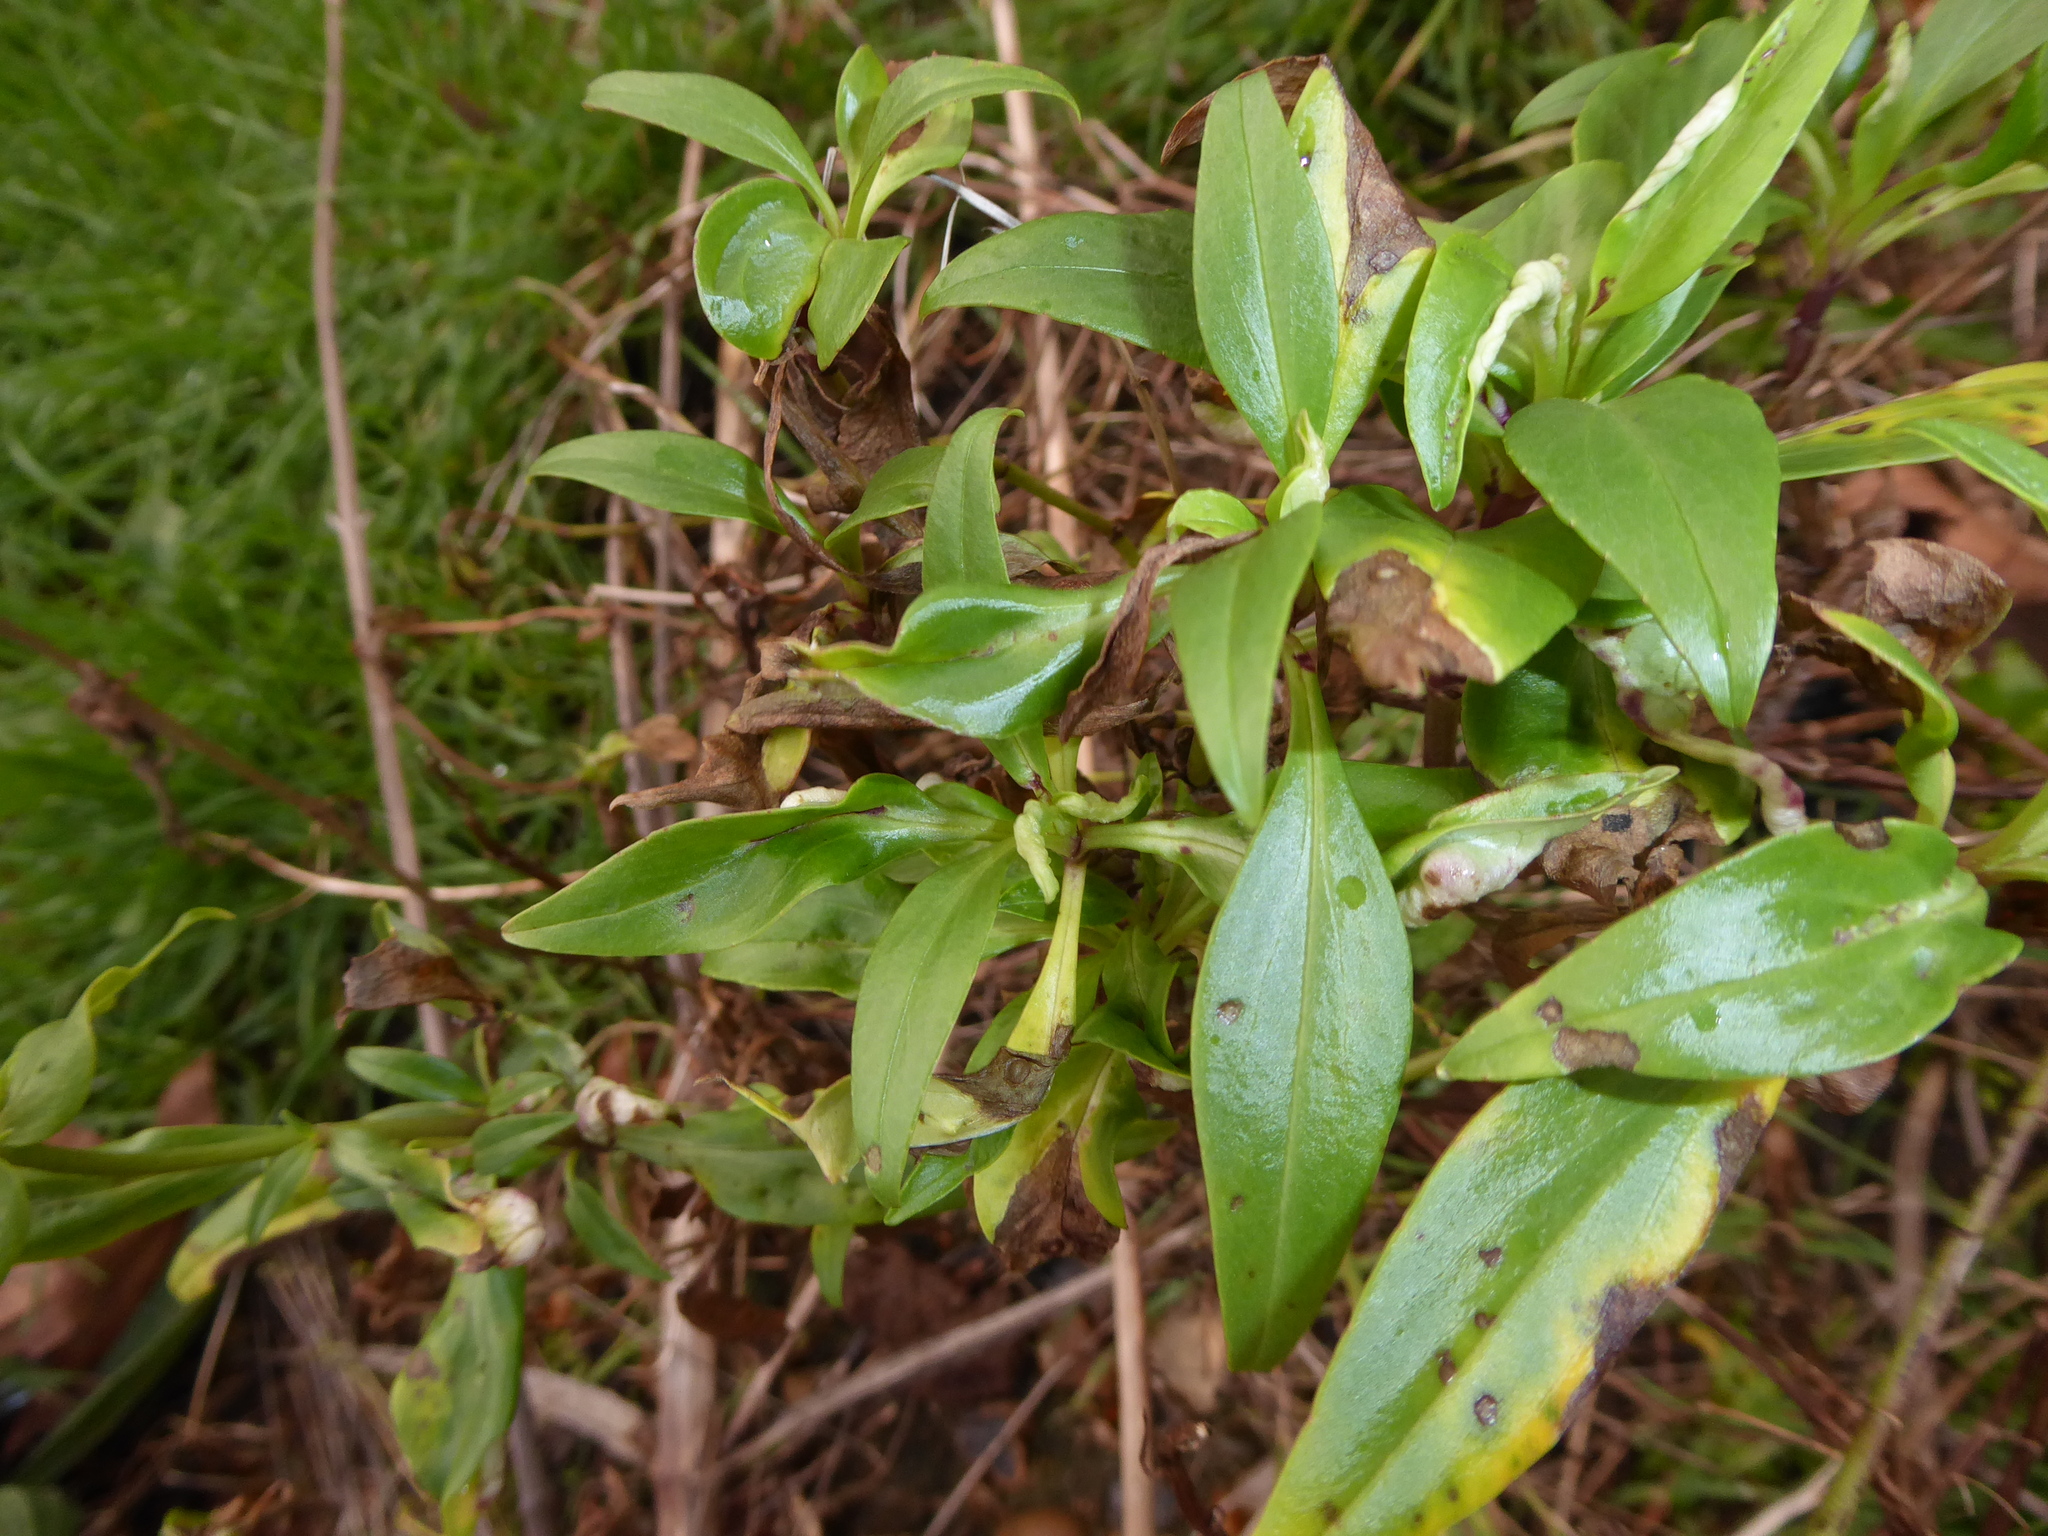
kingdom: Plantae
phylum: Tracheophyta
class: Magnoliopsida
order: Dipsacales
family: Caprifoliaceae
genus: Centranthus
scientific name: Centranthus ruber
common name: Red valerian
